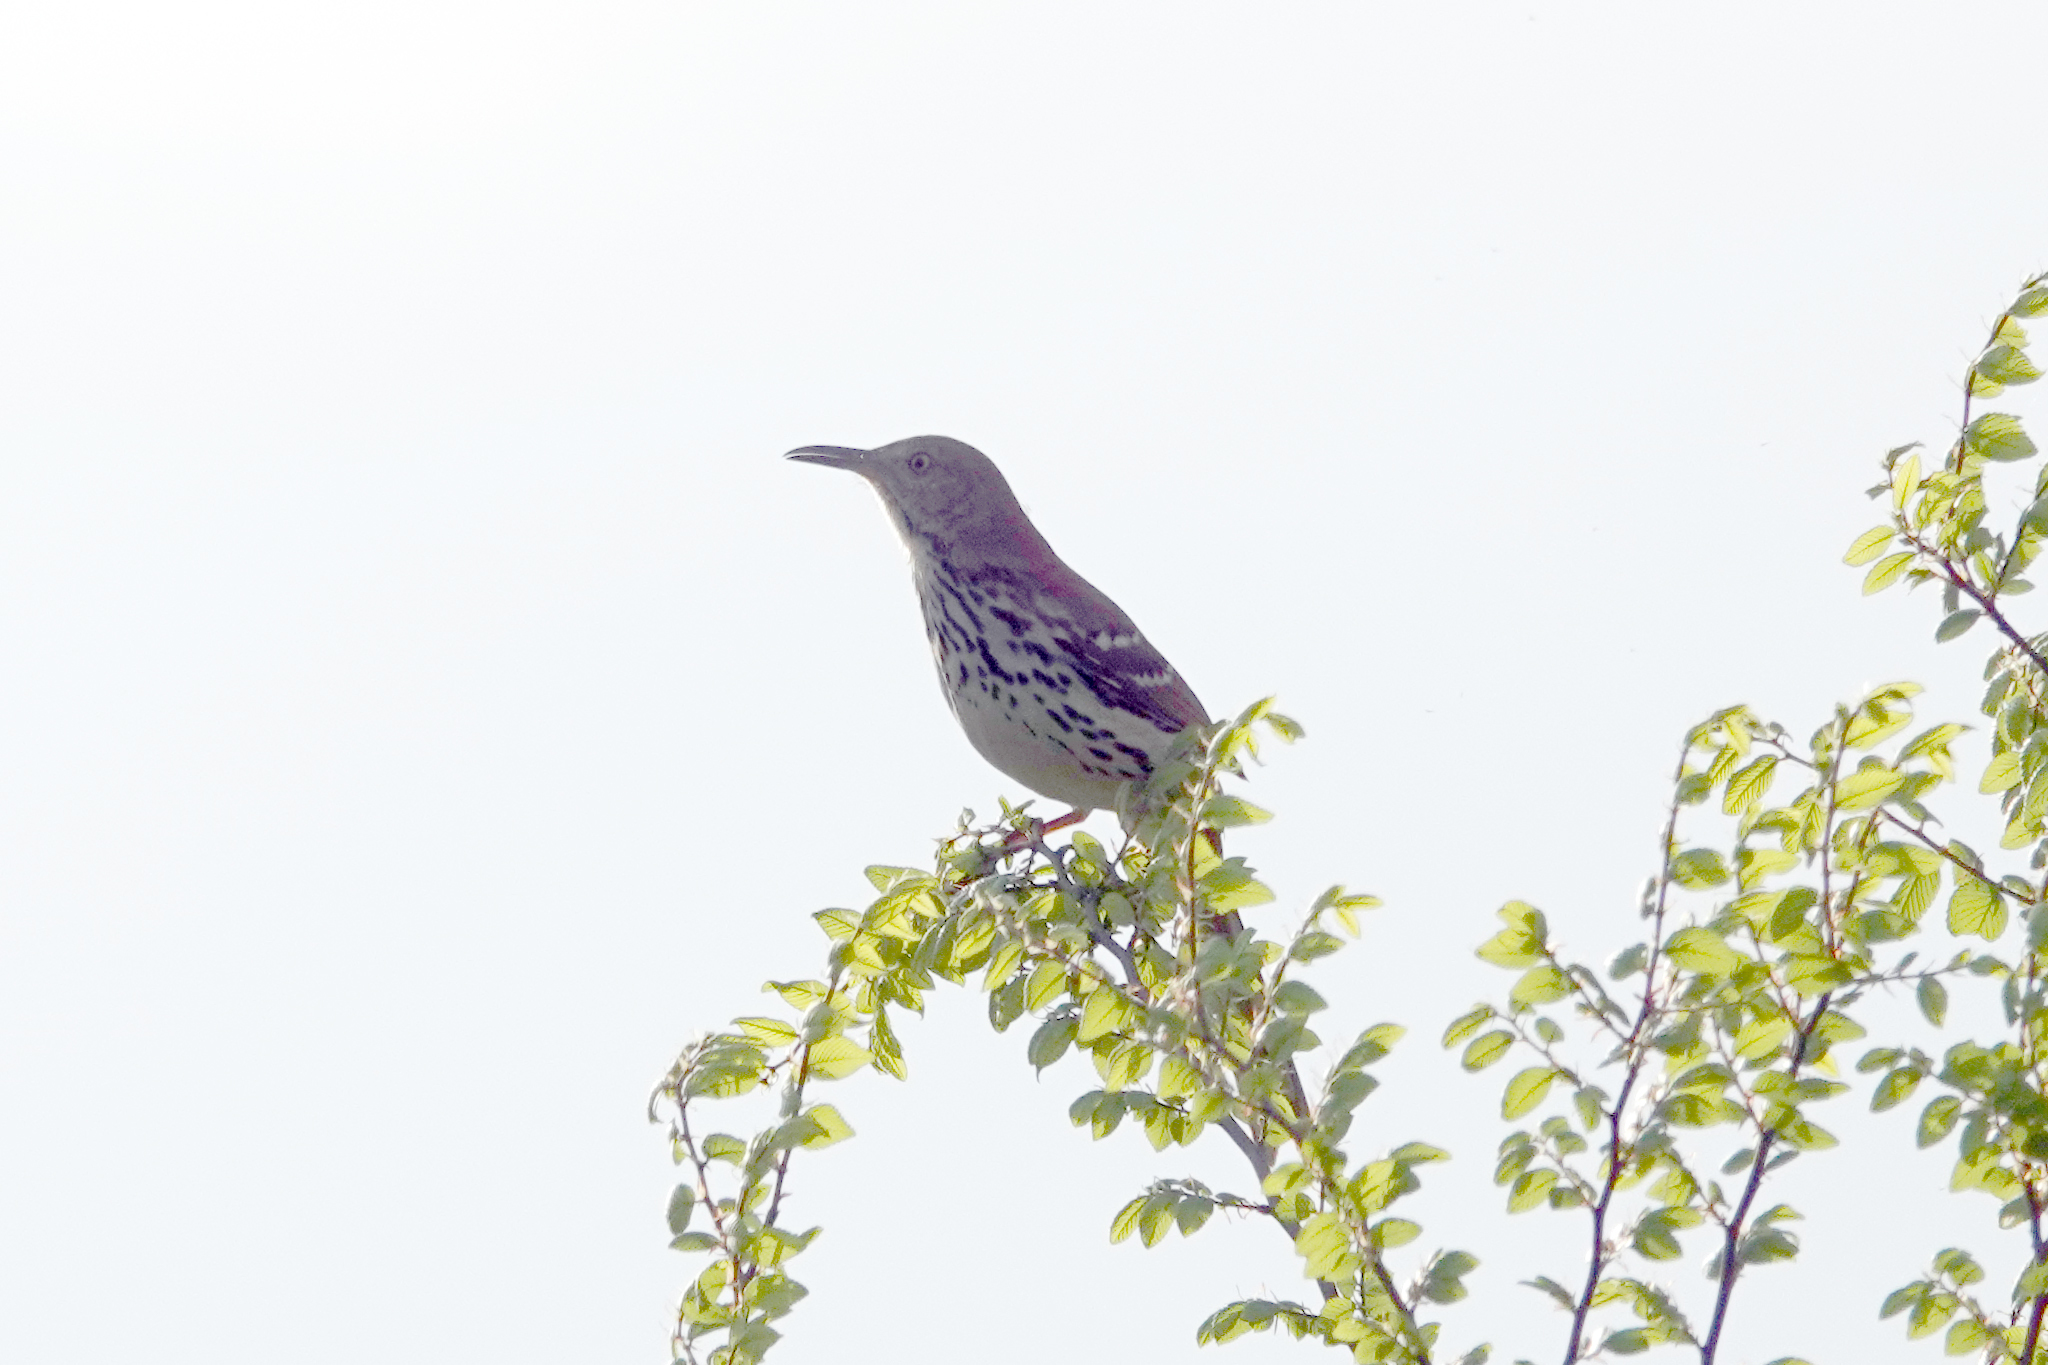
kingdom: Animalia
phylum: Chordata
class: Aves
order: Passeriformes
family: Mimidae
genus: Toxostoma
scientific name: Toxostoma rufum
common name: Brown thrasher
